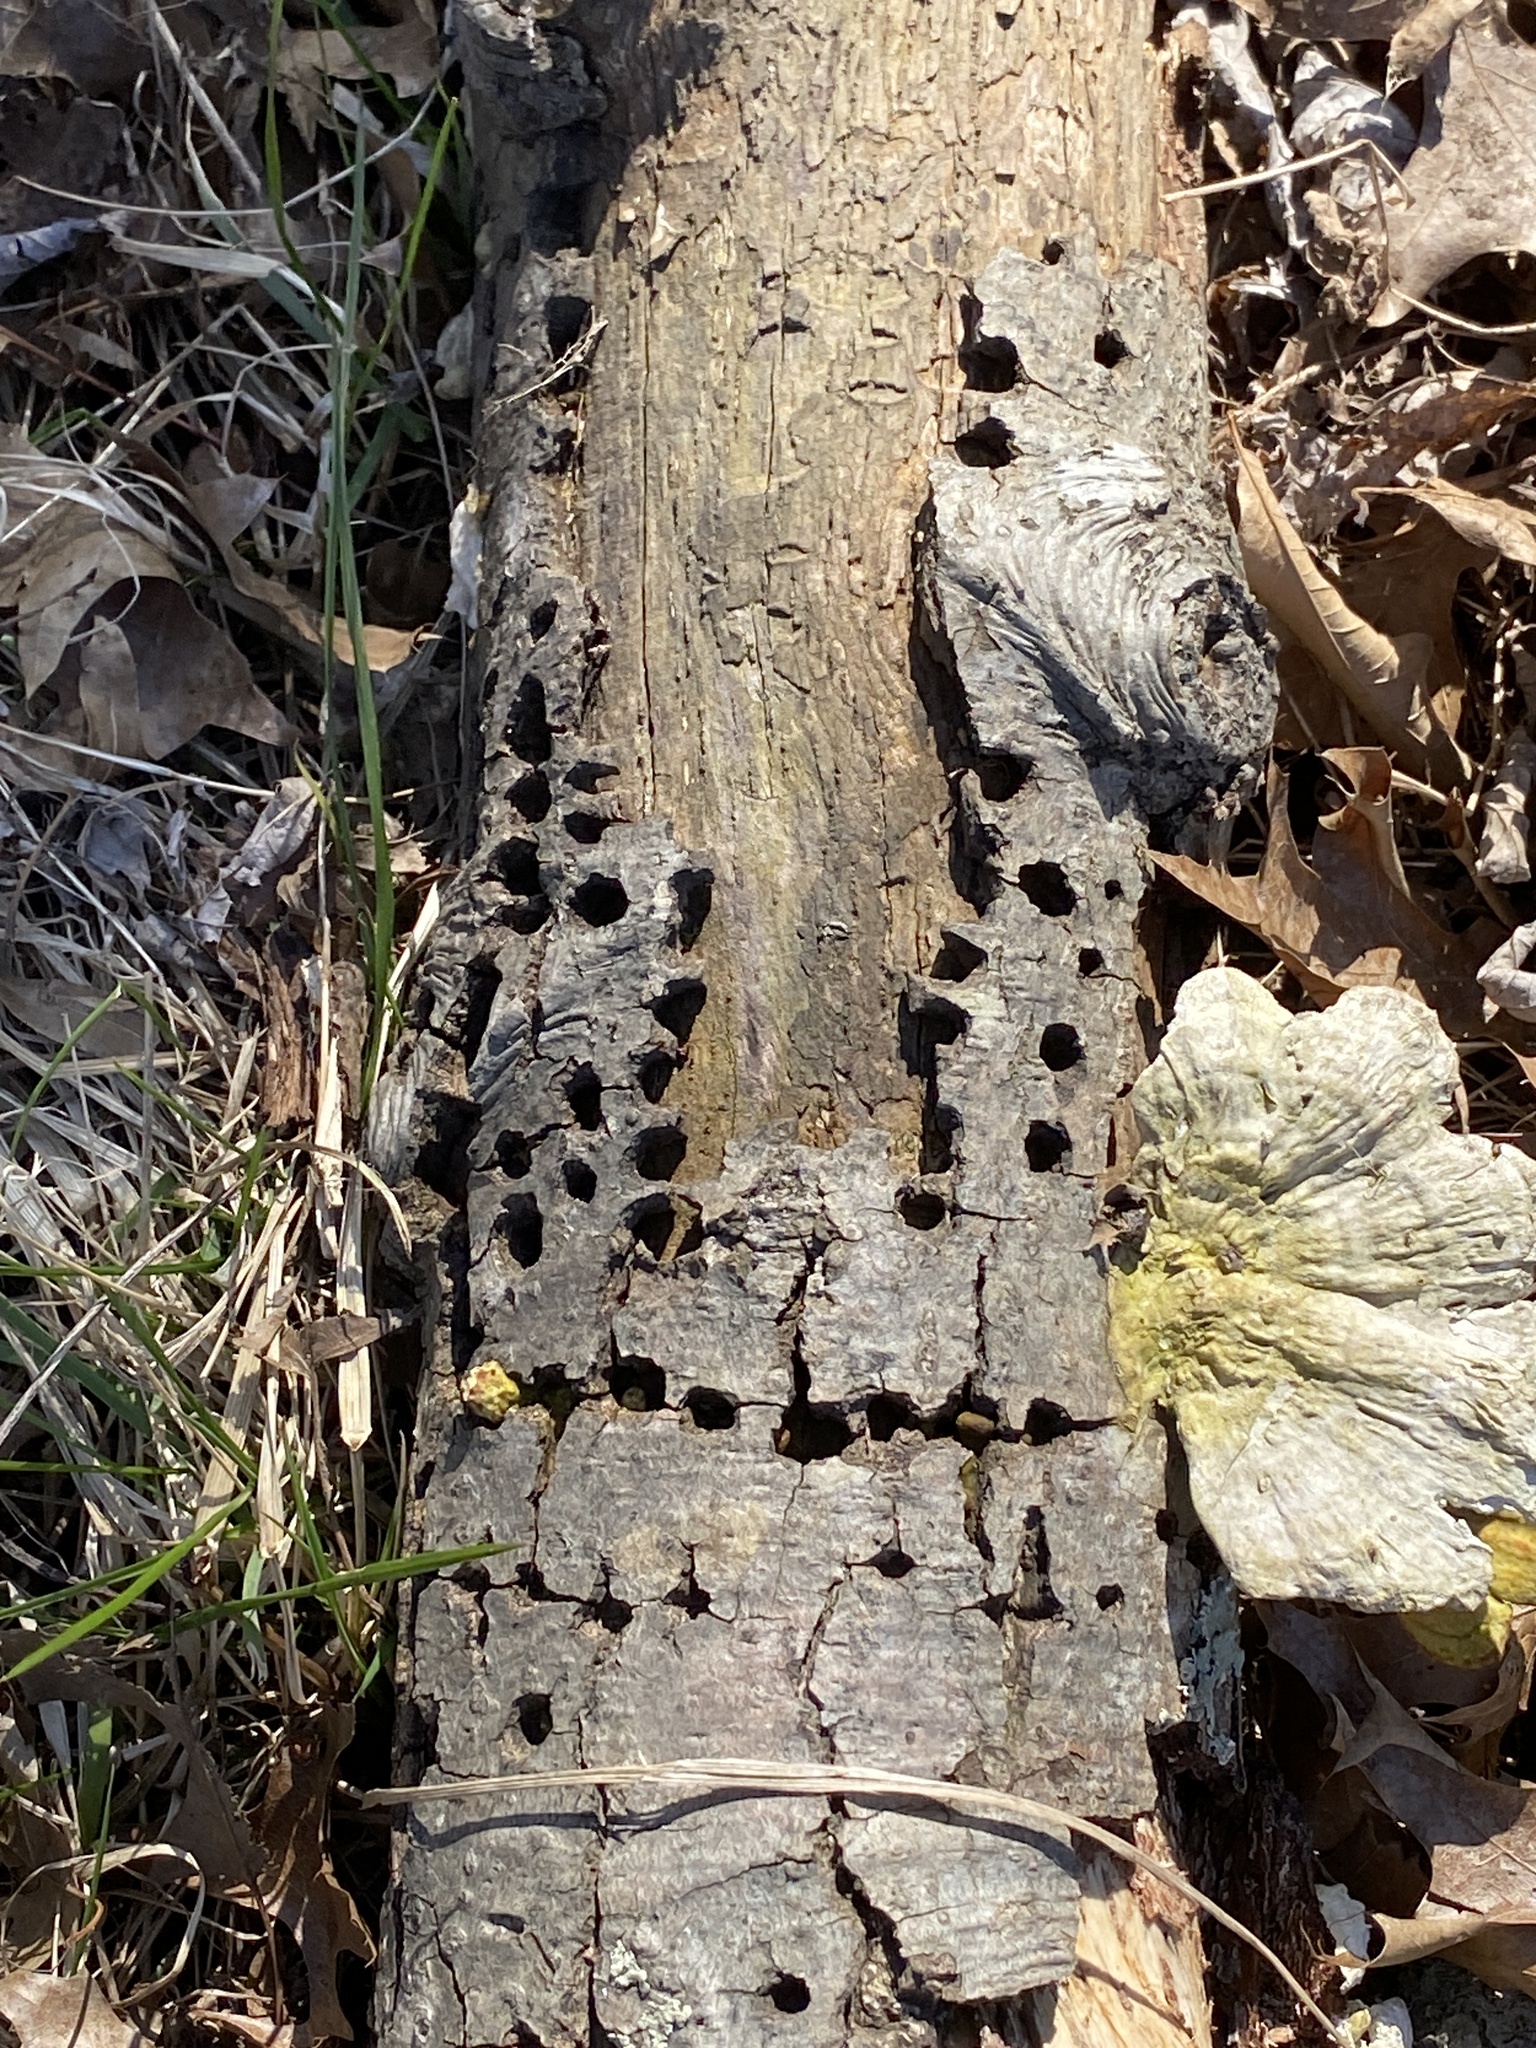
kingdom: Animalia
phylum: Chordata
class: Aves
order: Piciformes
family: Picidae
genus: Sphyrapicus
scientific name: Sphyrapicus varius
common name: Yellow-bellied sapsucker
